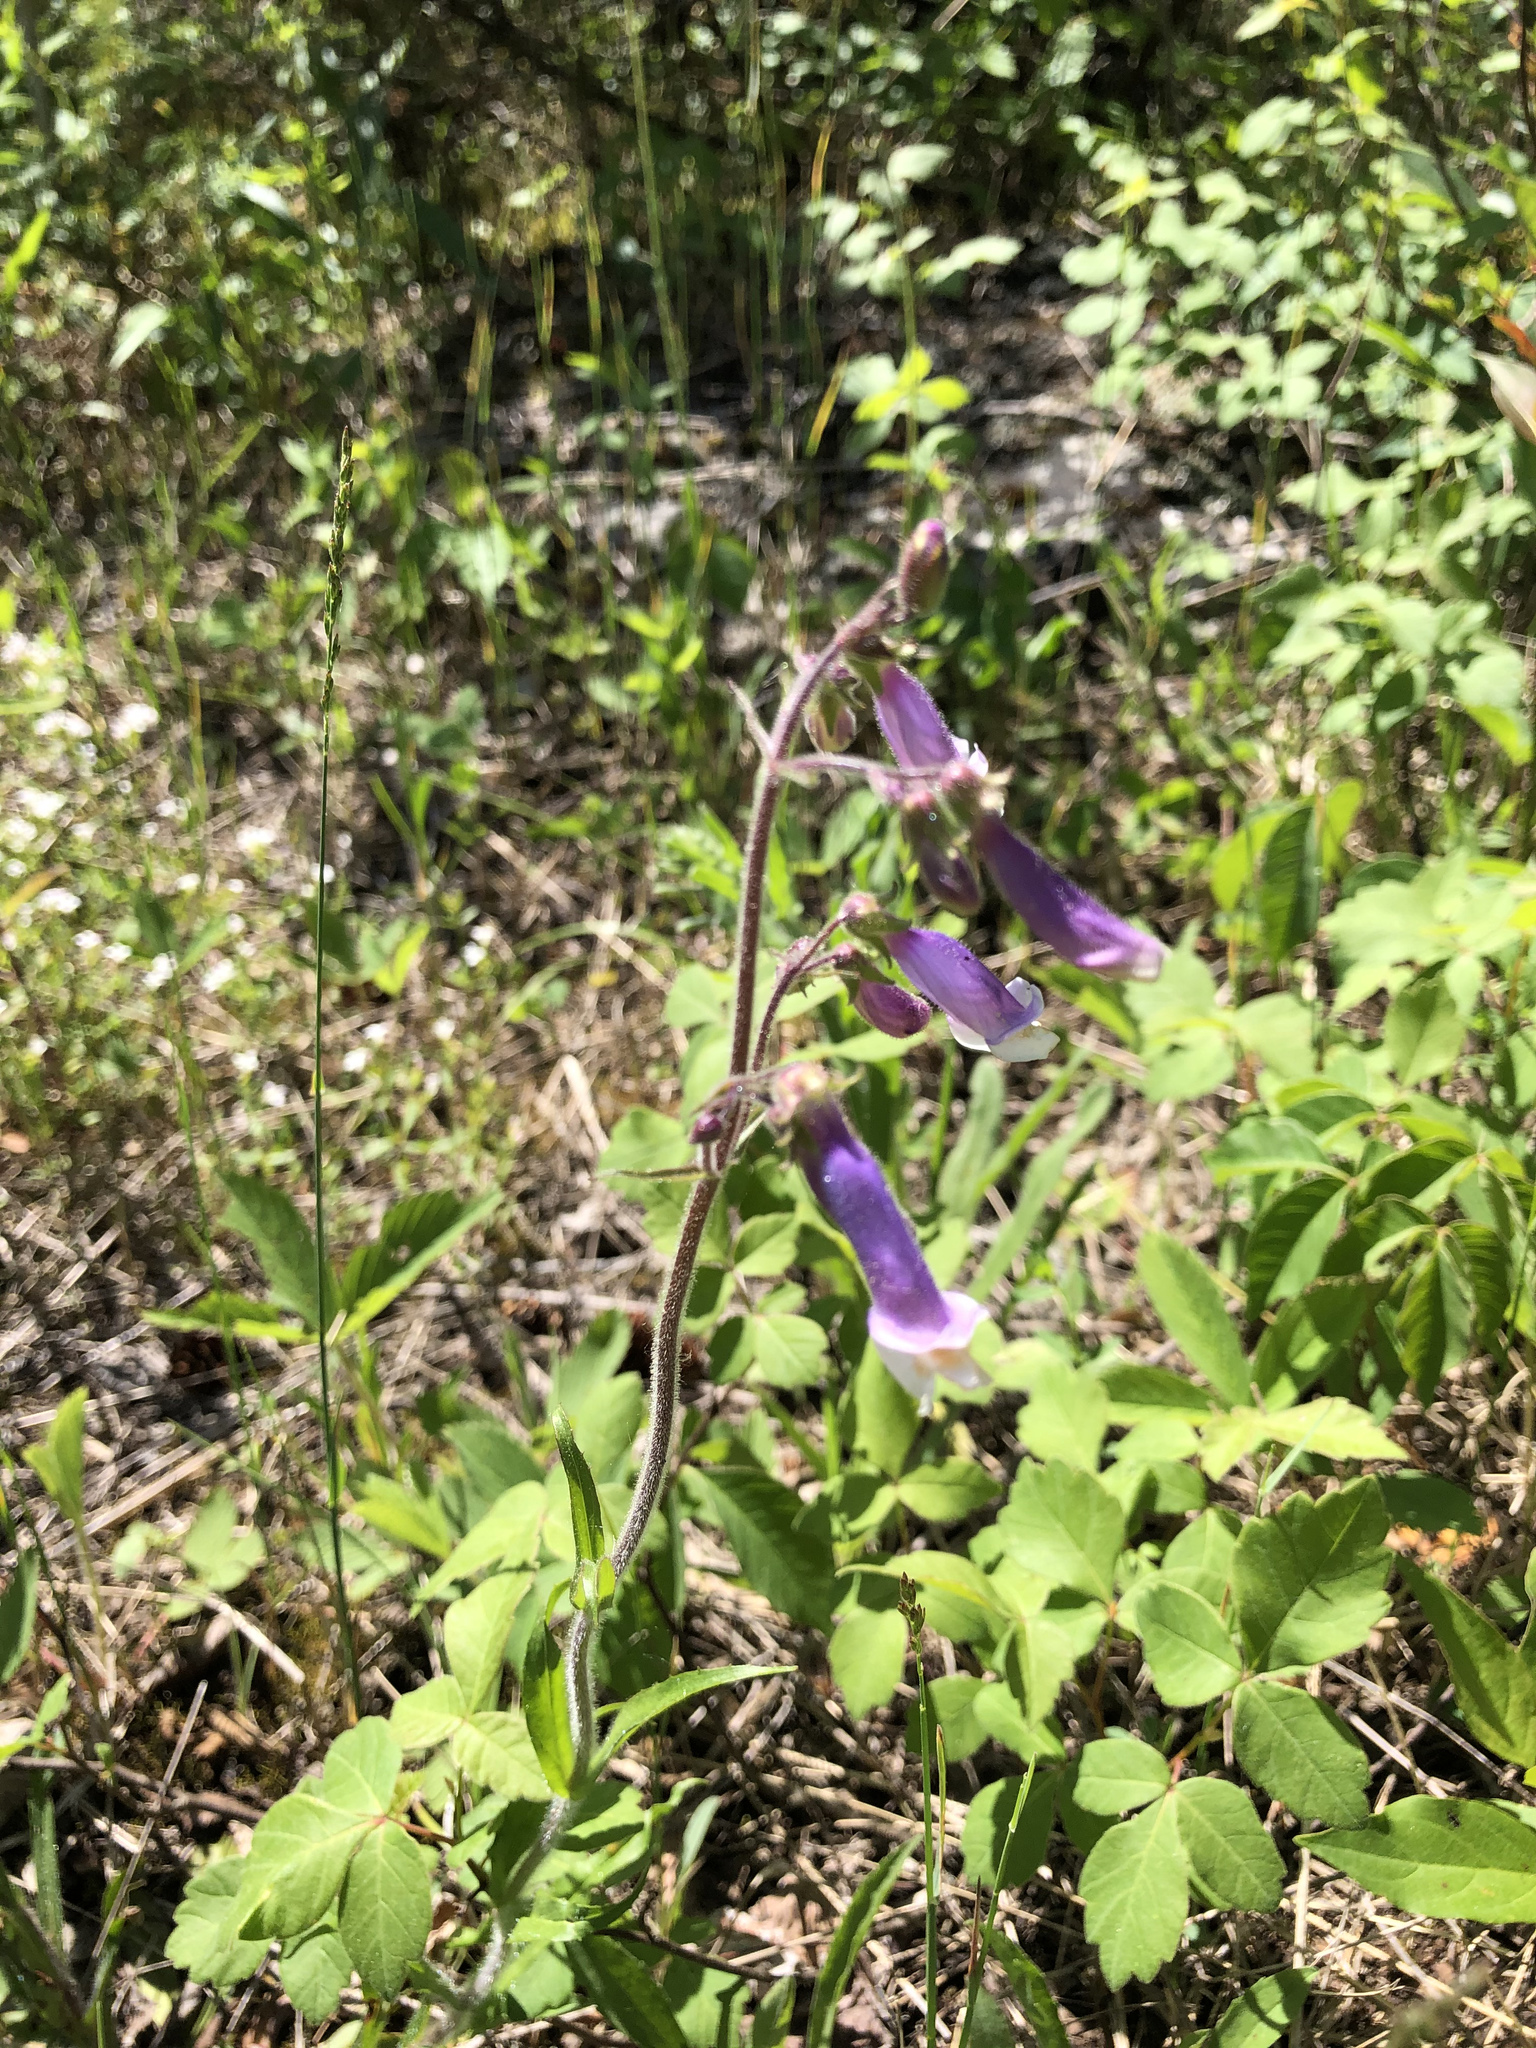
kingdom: Plantae
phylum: Tracheophyta
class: Magnoliopsida
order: Lamiales
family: Plantaginaceae
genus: Penstemon
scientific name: Penstemon hirsutus
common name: Hairy beardtongue
